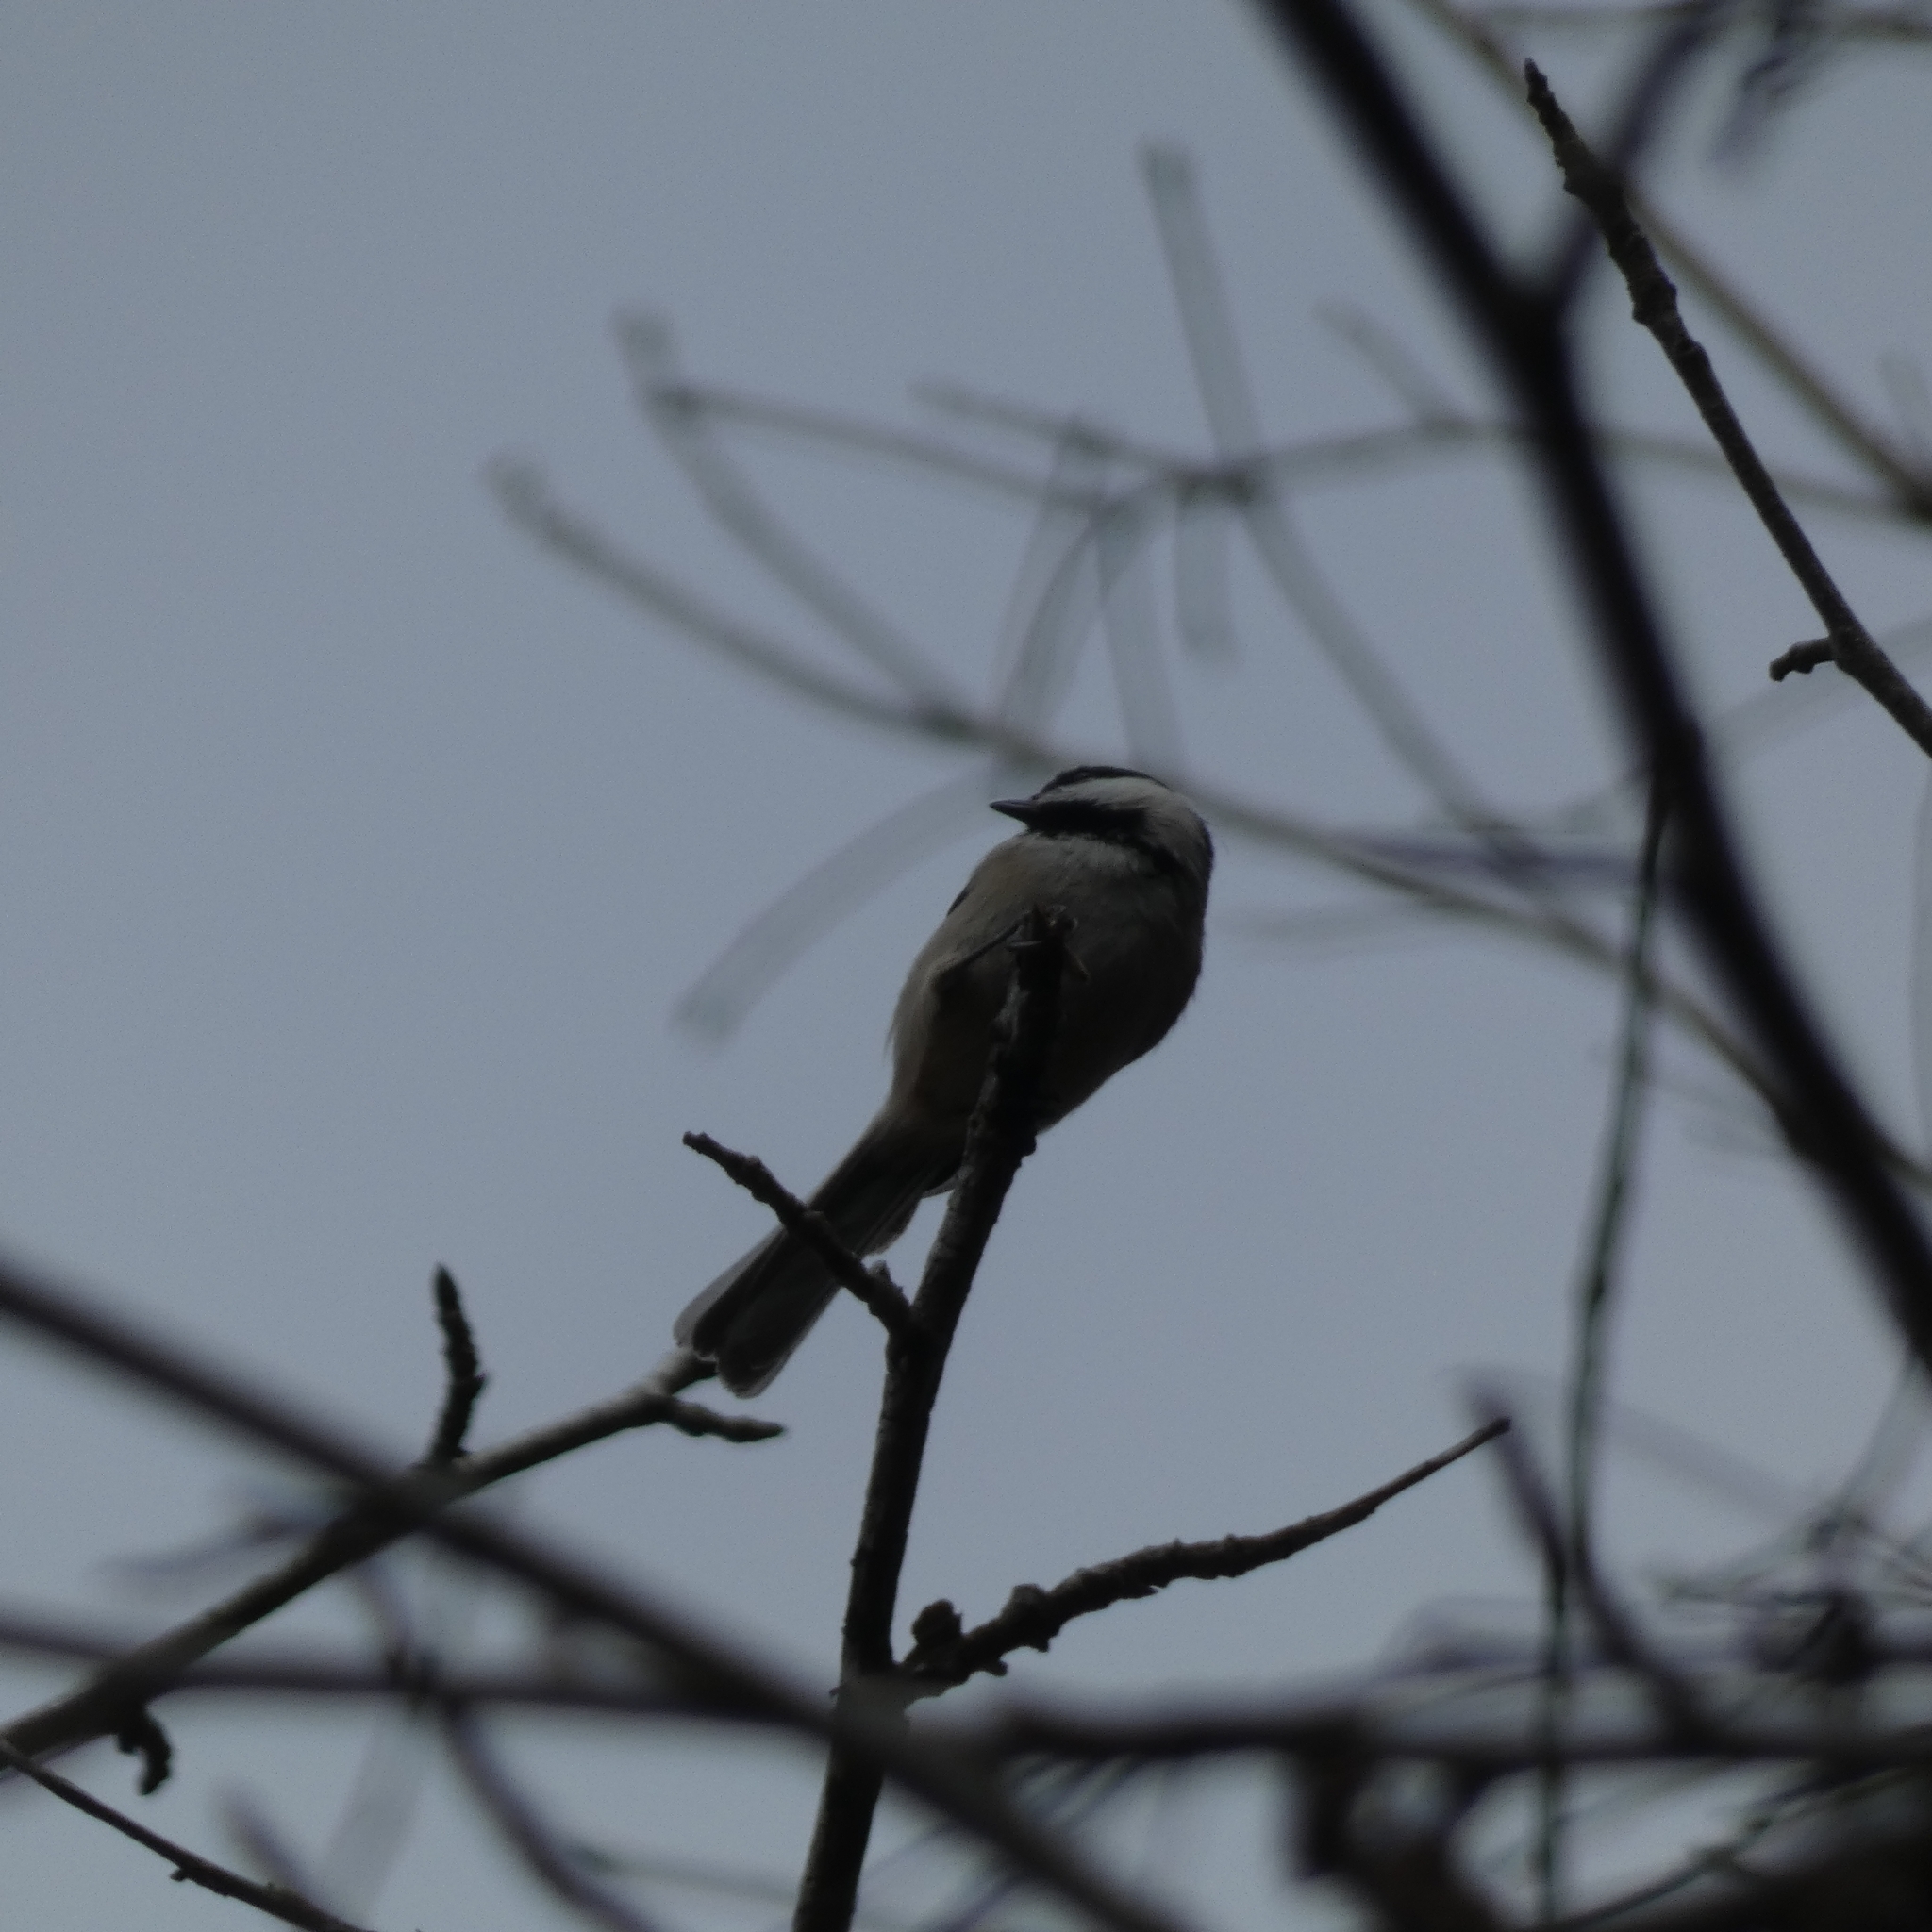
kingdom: Animalia
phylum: Chordata
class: Aves
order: Passeriformes
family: Paridae
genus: Poecile
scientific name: Poecile carolinensis
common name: Carolina chickadee
